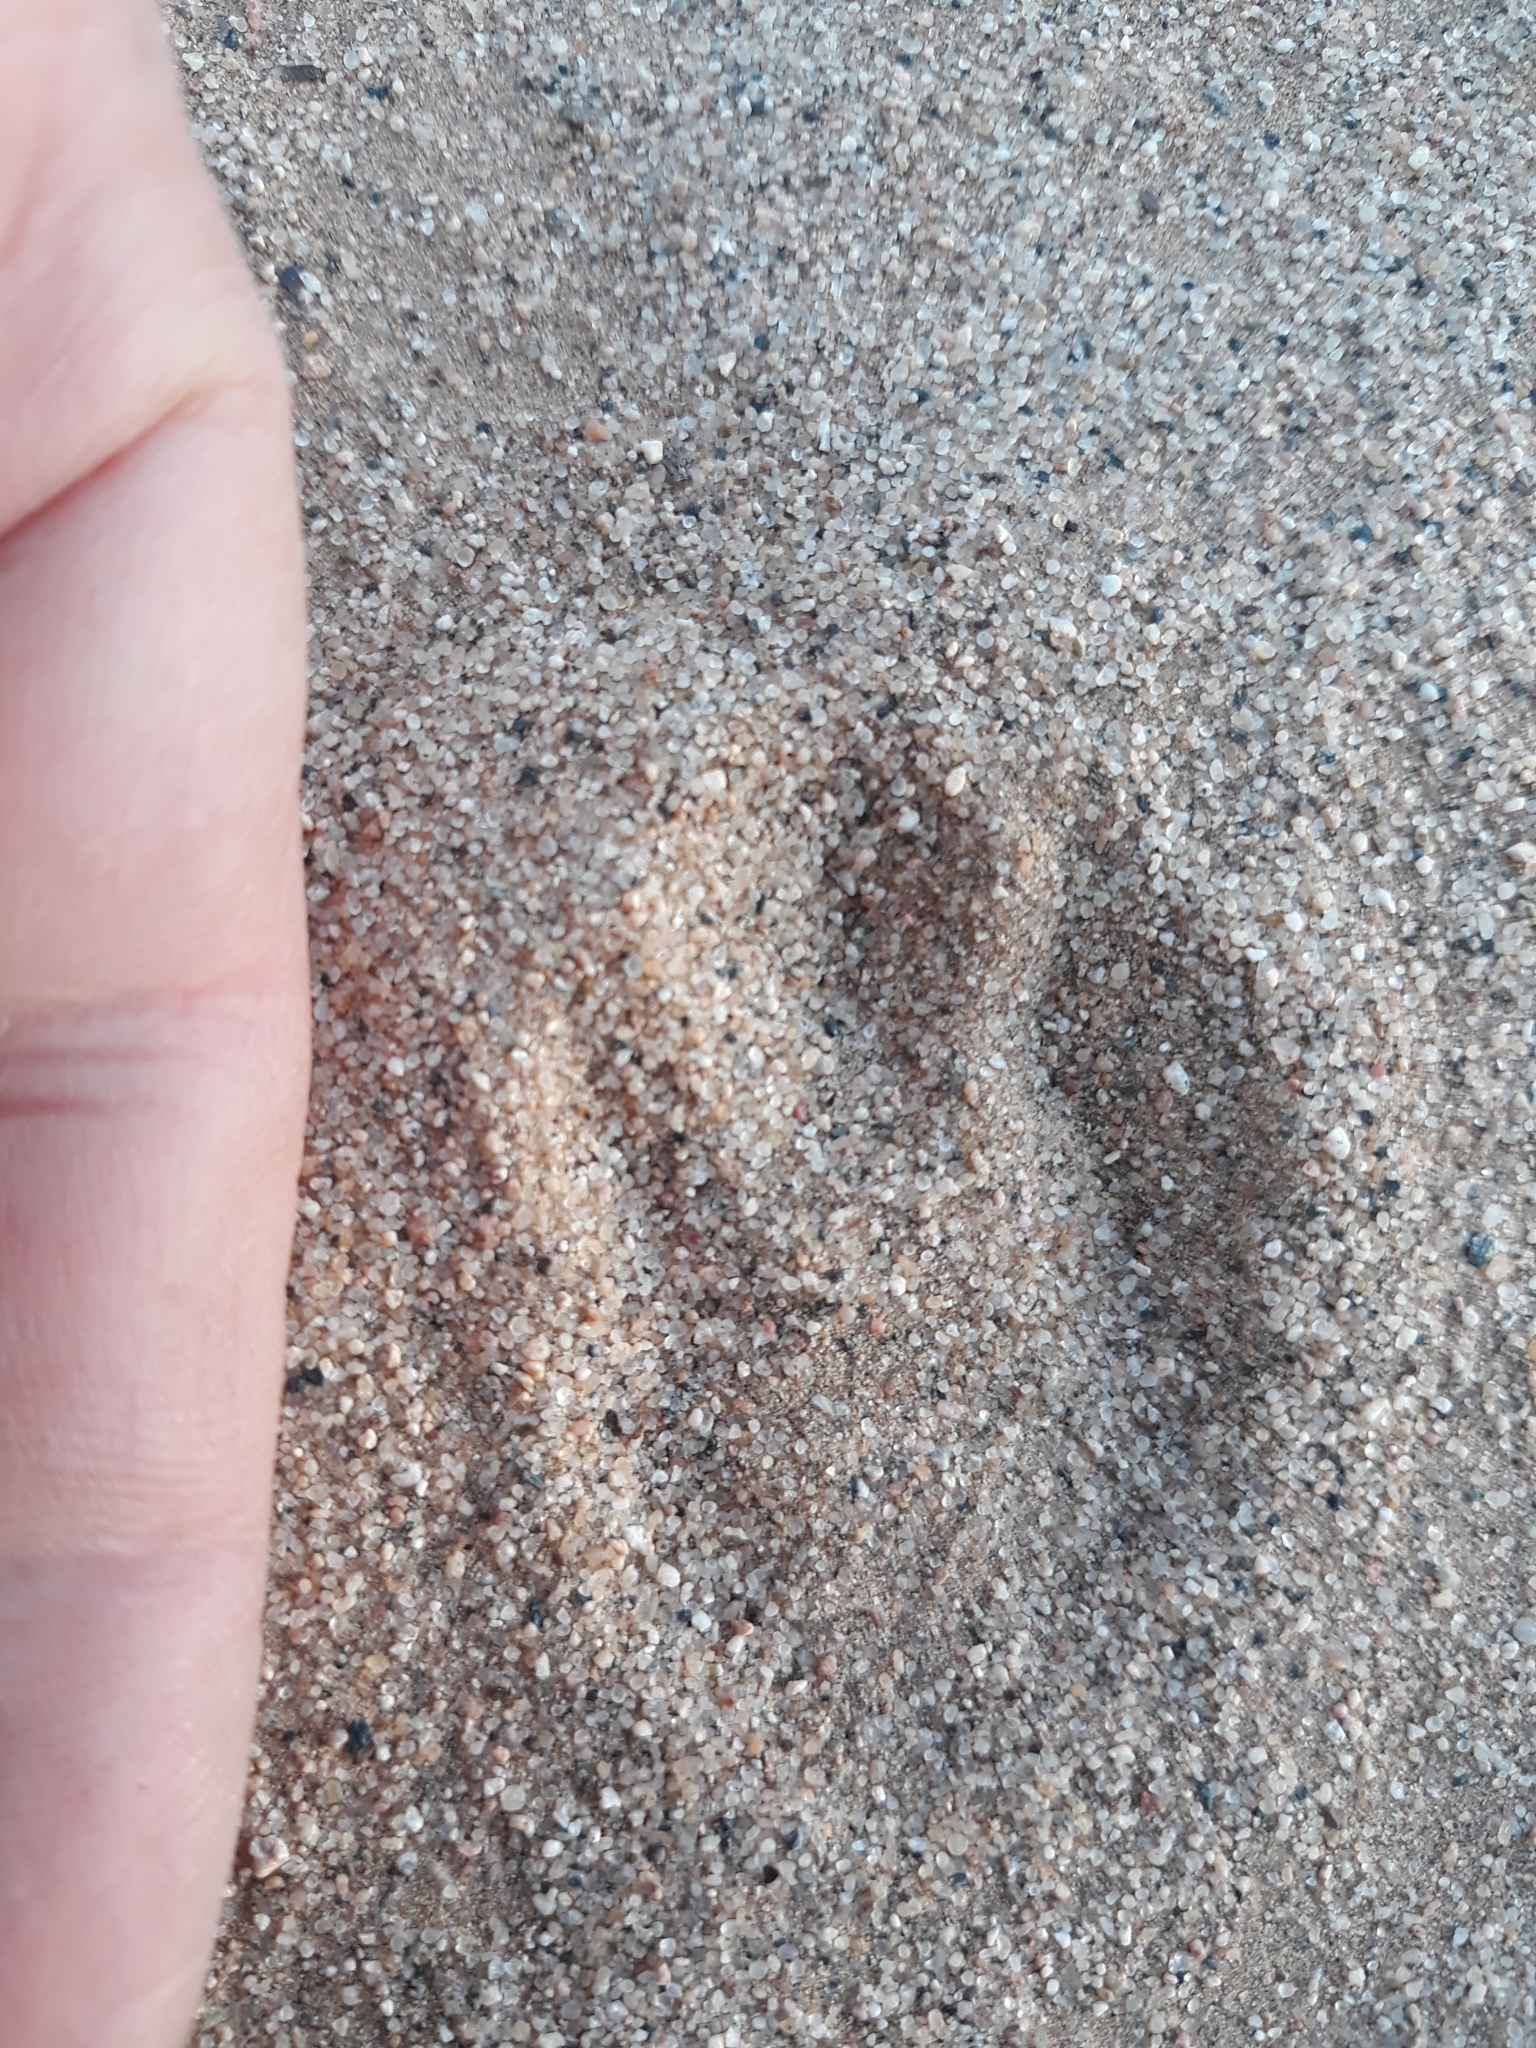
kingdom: Animalia
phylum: Chordata
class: Mammalia
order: Lagomorpha
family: Leporidae
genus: Lepus
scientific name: Lepus capensis
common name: Cape hare
